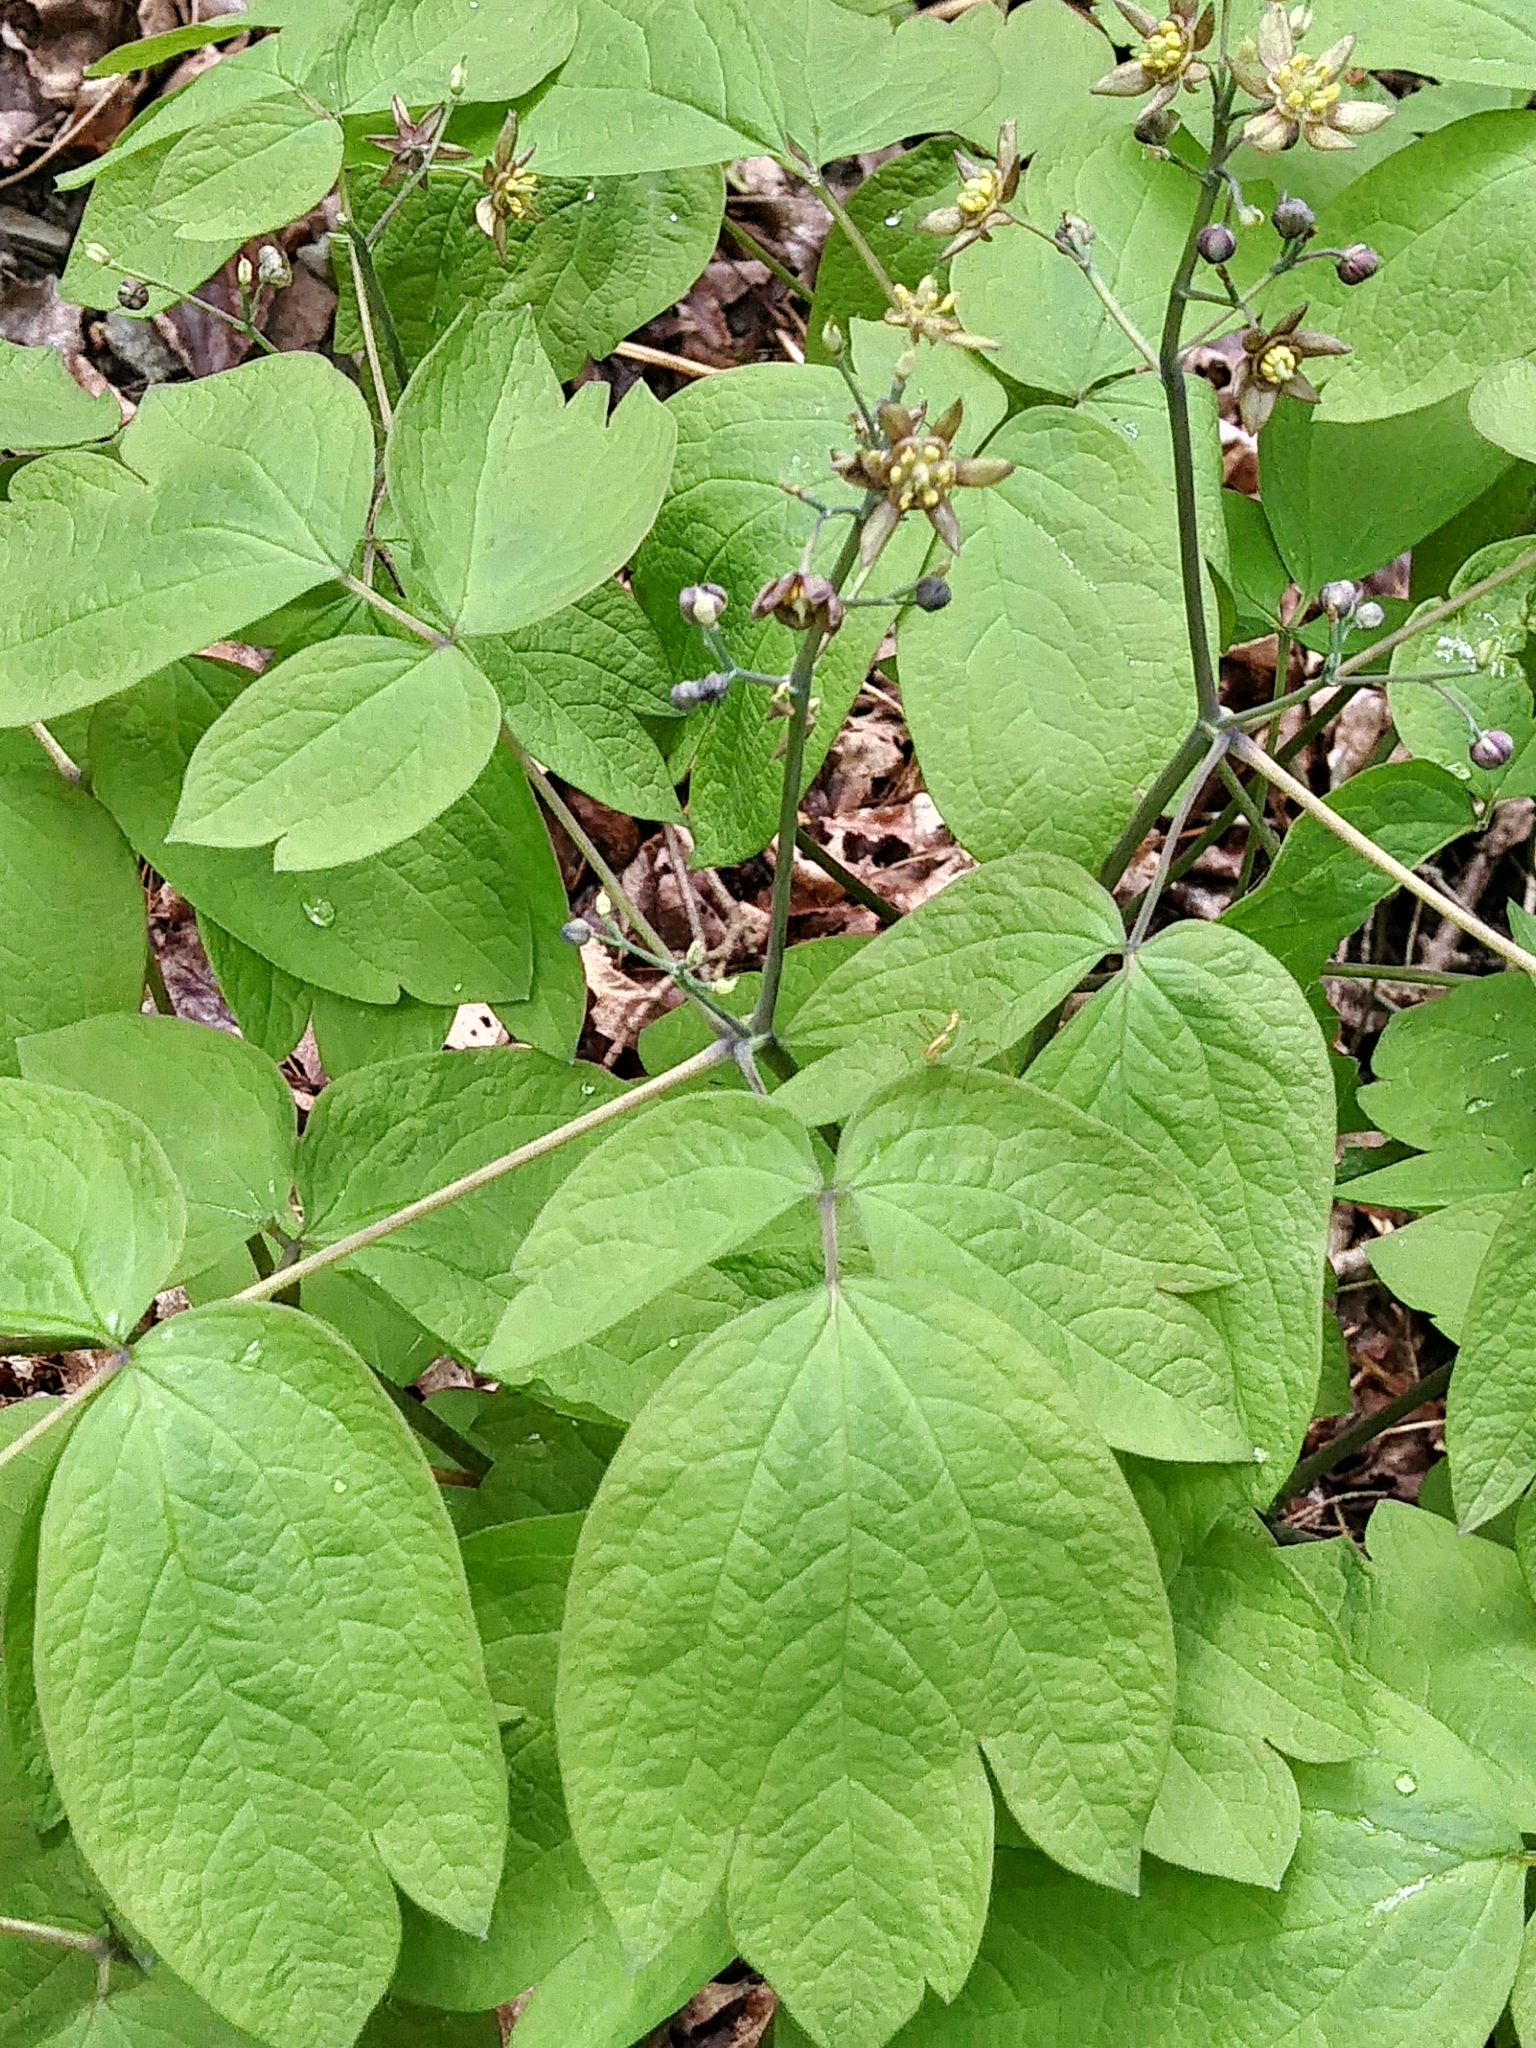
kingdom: Plantae
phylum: Tracheophyta
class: Magnoliopsida
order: Ranunculales
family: Berberidaceae
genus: Caulophyllum
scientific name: Caulophyllum thalictroides
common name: Blue cohosh
